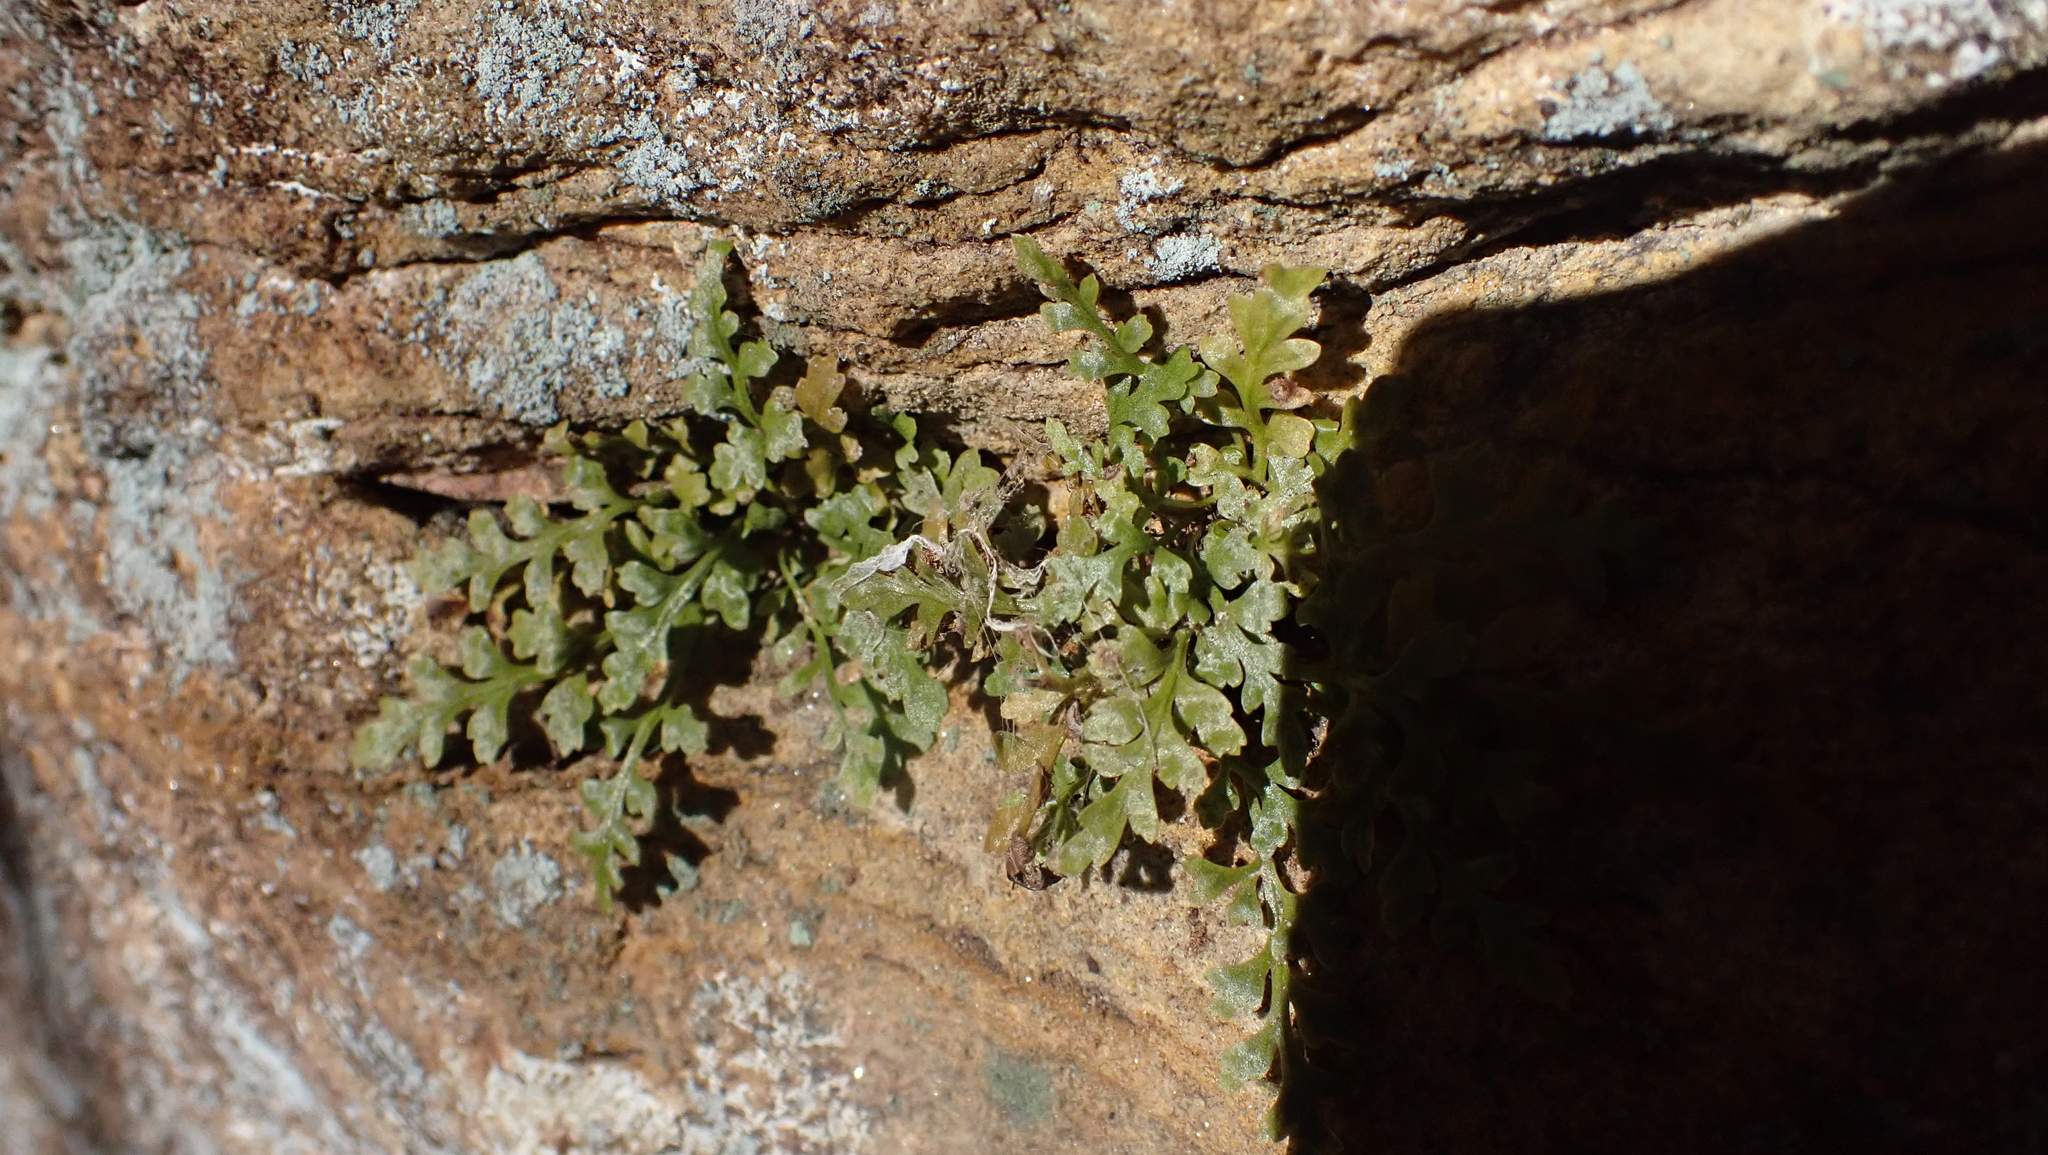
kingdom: Plantae
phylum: Tracheophyta
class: Polypodiopsida
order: Polypodiales
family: Aspleniaceae
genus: Asplenium
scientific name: Asplenium montanum
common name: Mountain spleenwort
